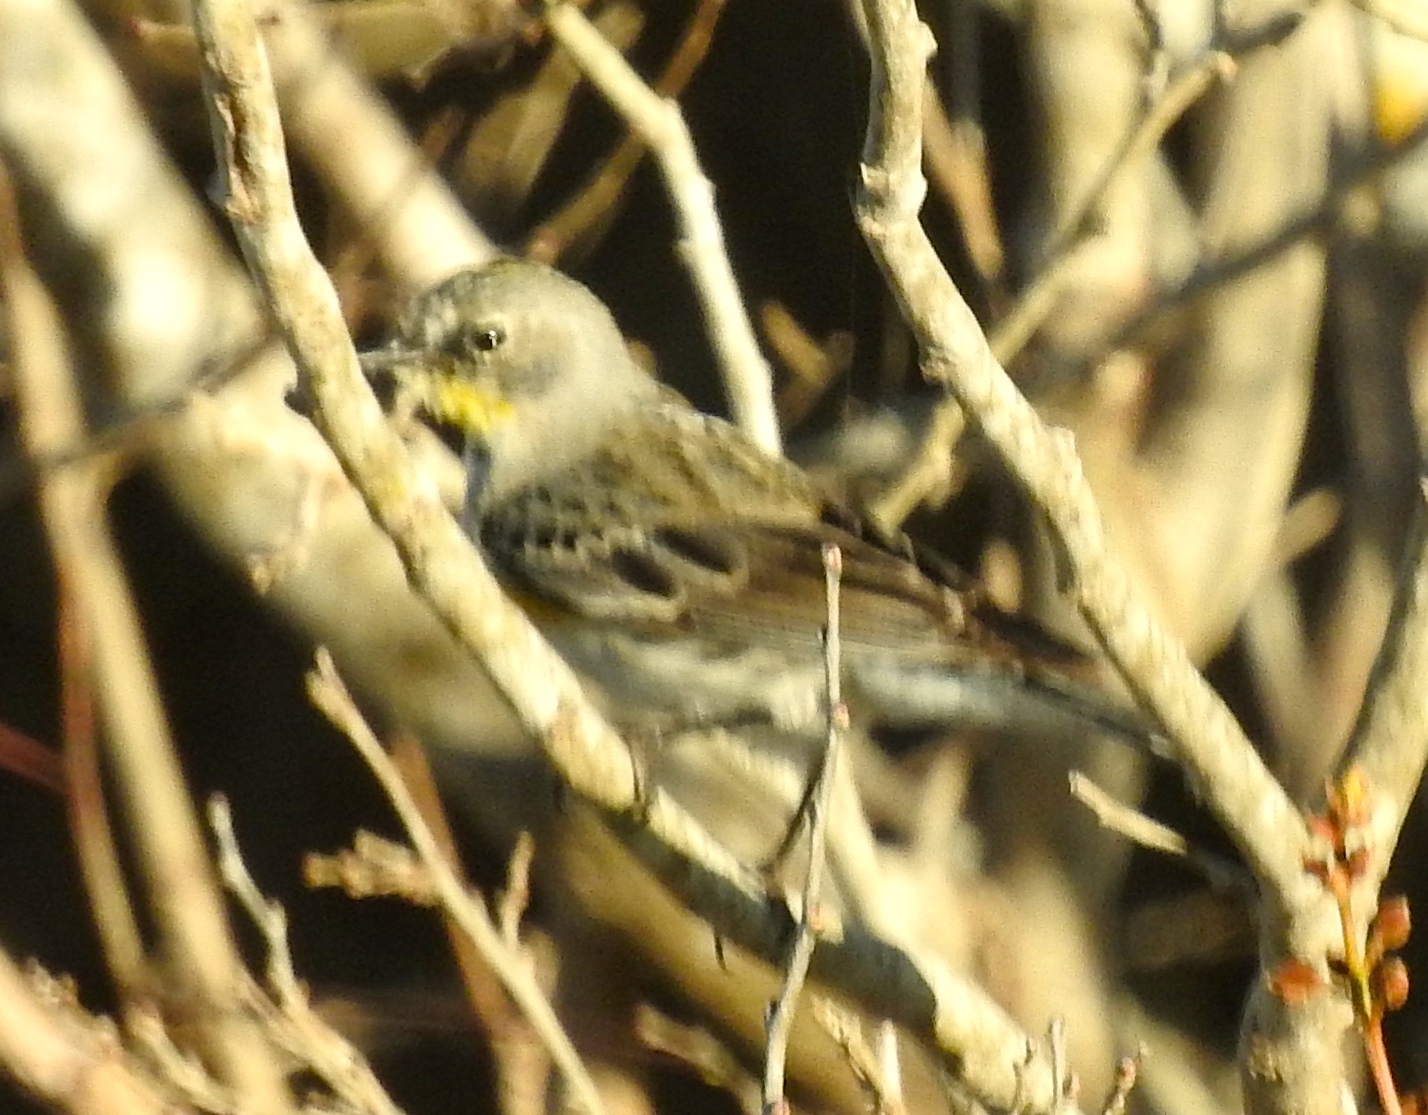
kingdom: Animalia
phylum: Chordata
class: Aves
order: Passeriformes
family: Parulidae
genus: Setophaga
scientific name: Setophaga auduboni
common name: Audubon's warbler
